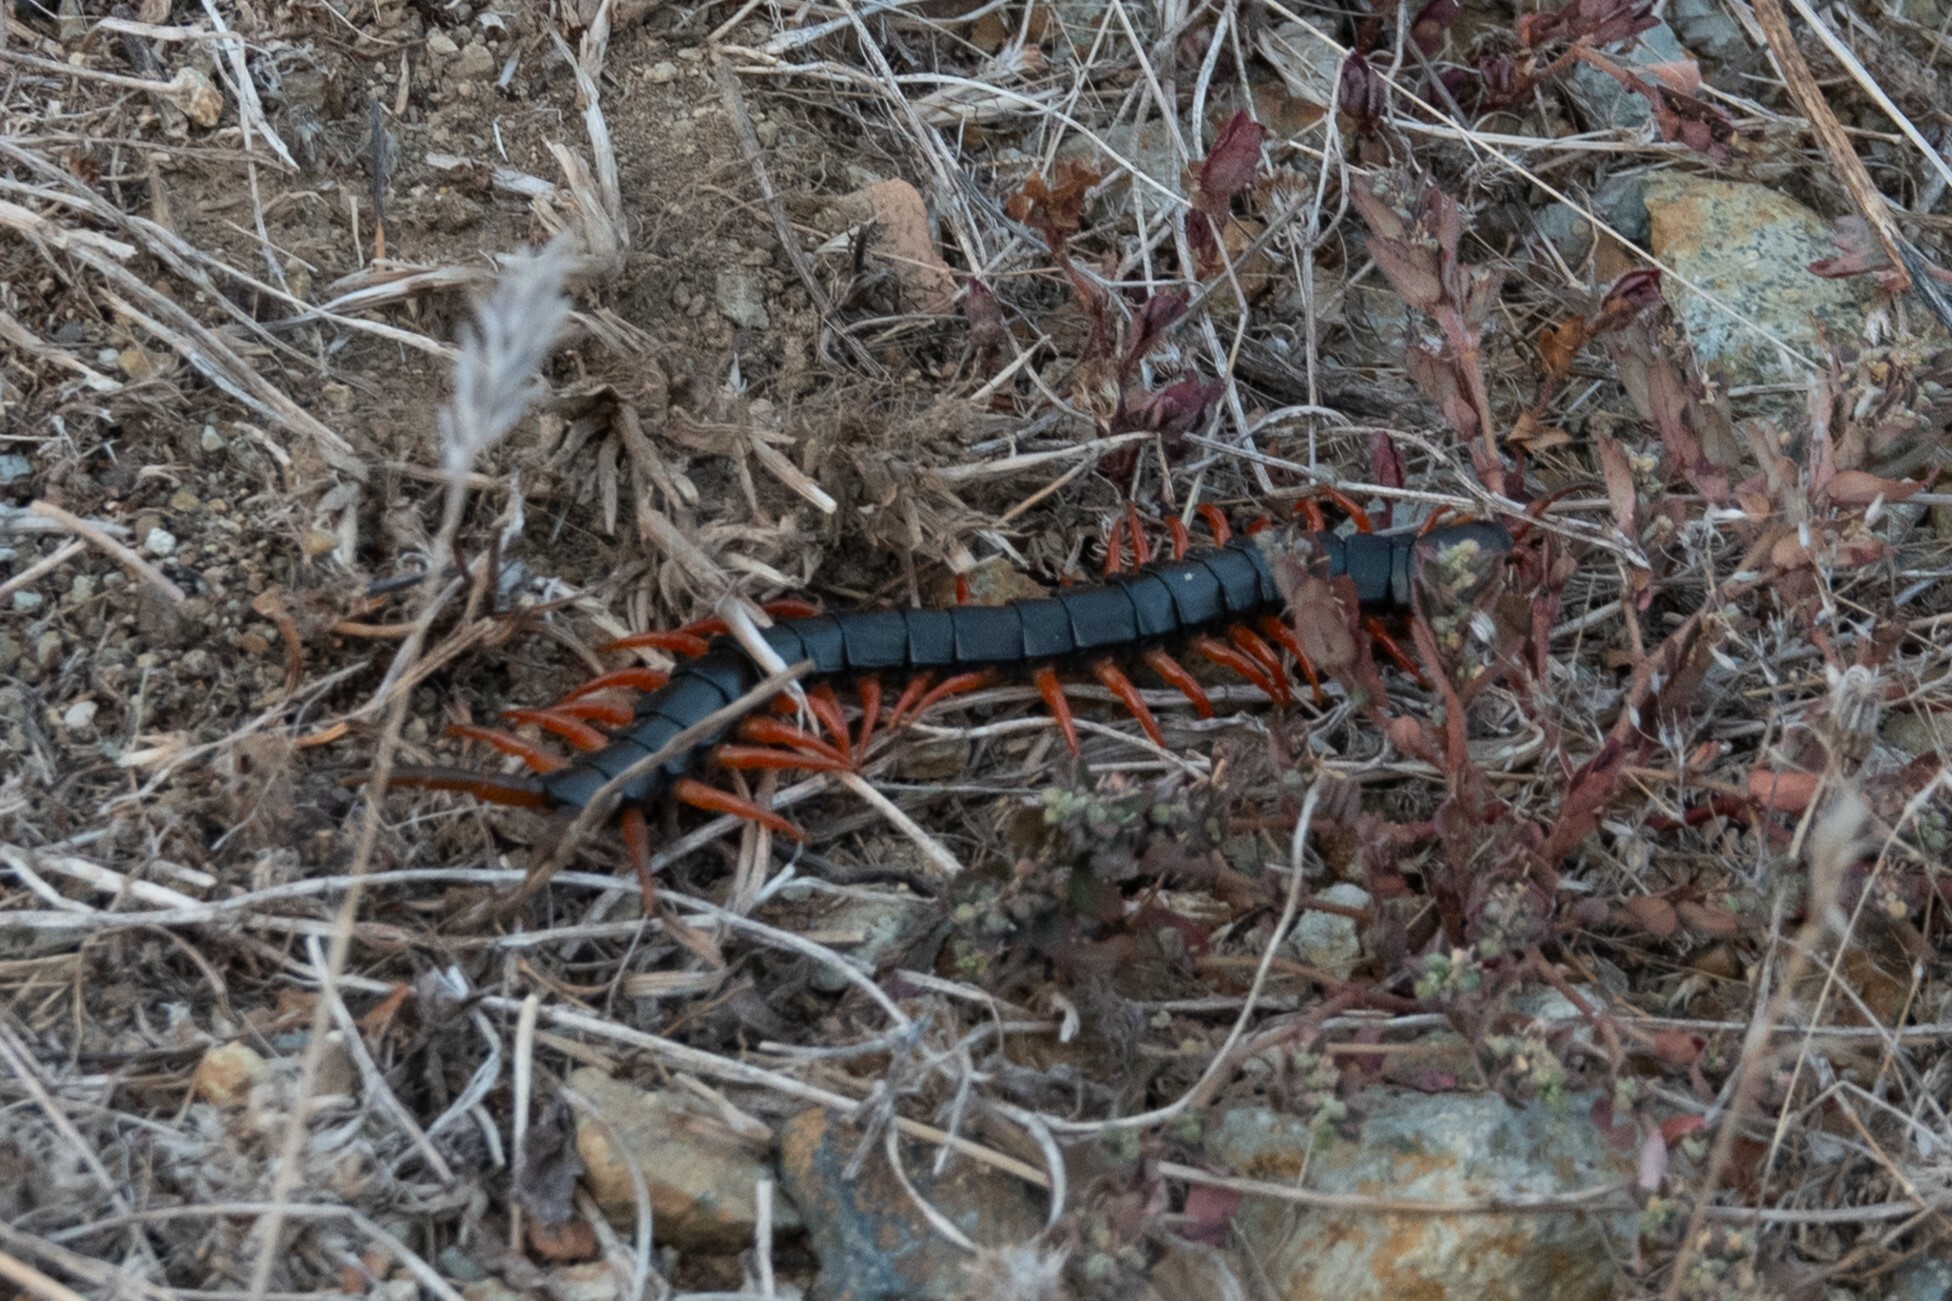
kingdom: Animalia
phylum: Arthropoda
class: Chilopoda
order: Scolopendromorpha
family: Scolopendridae
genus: Scolopendra
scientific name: Scolopendra cingulata
